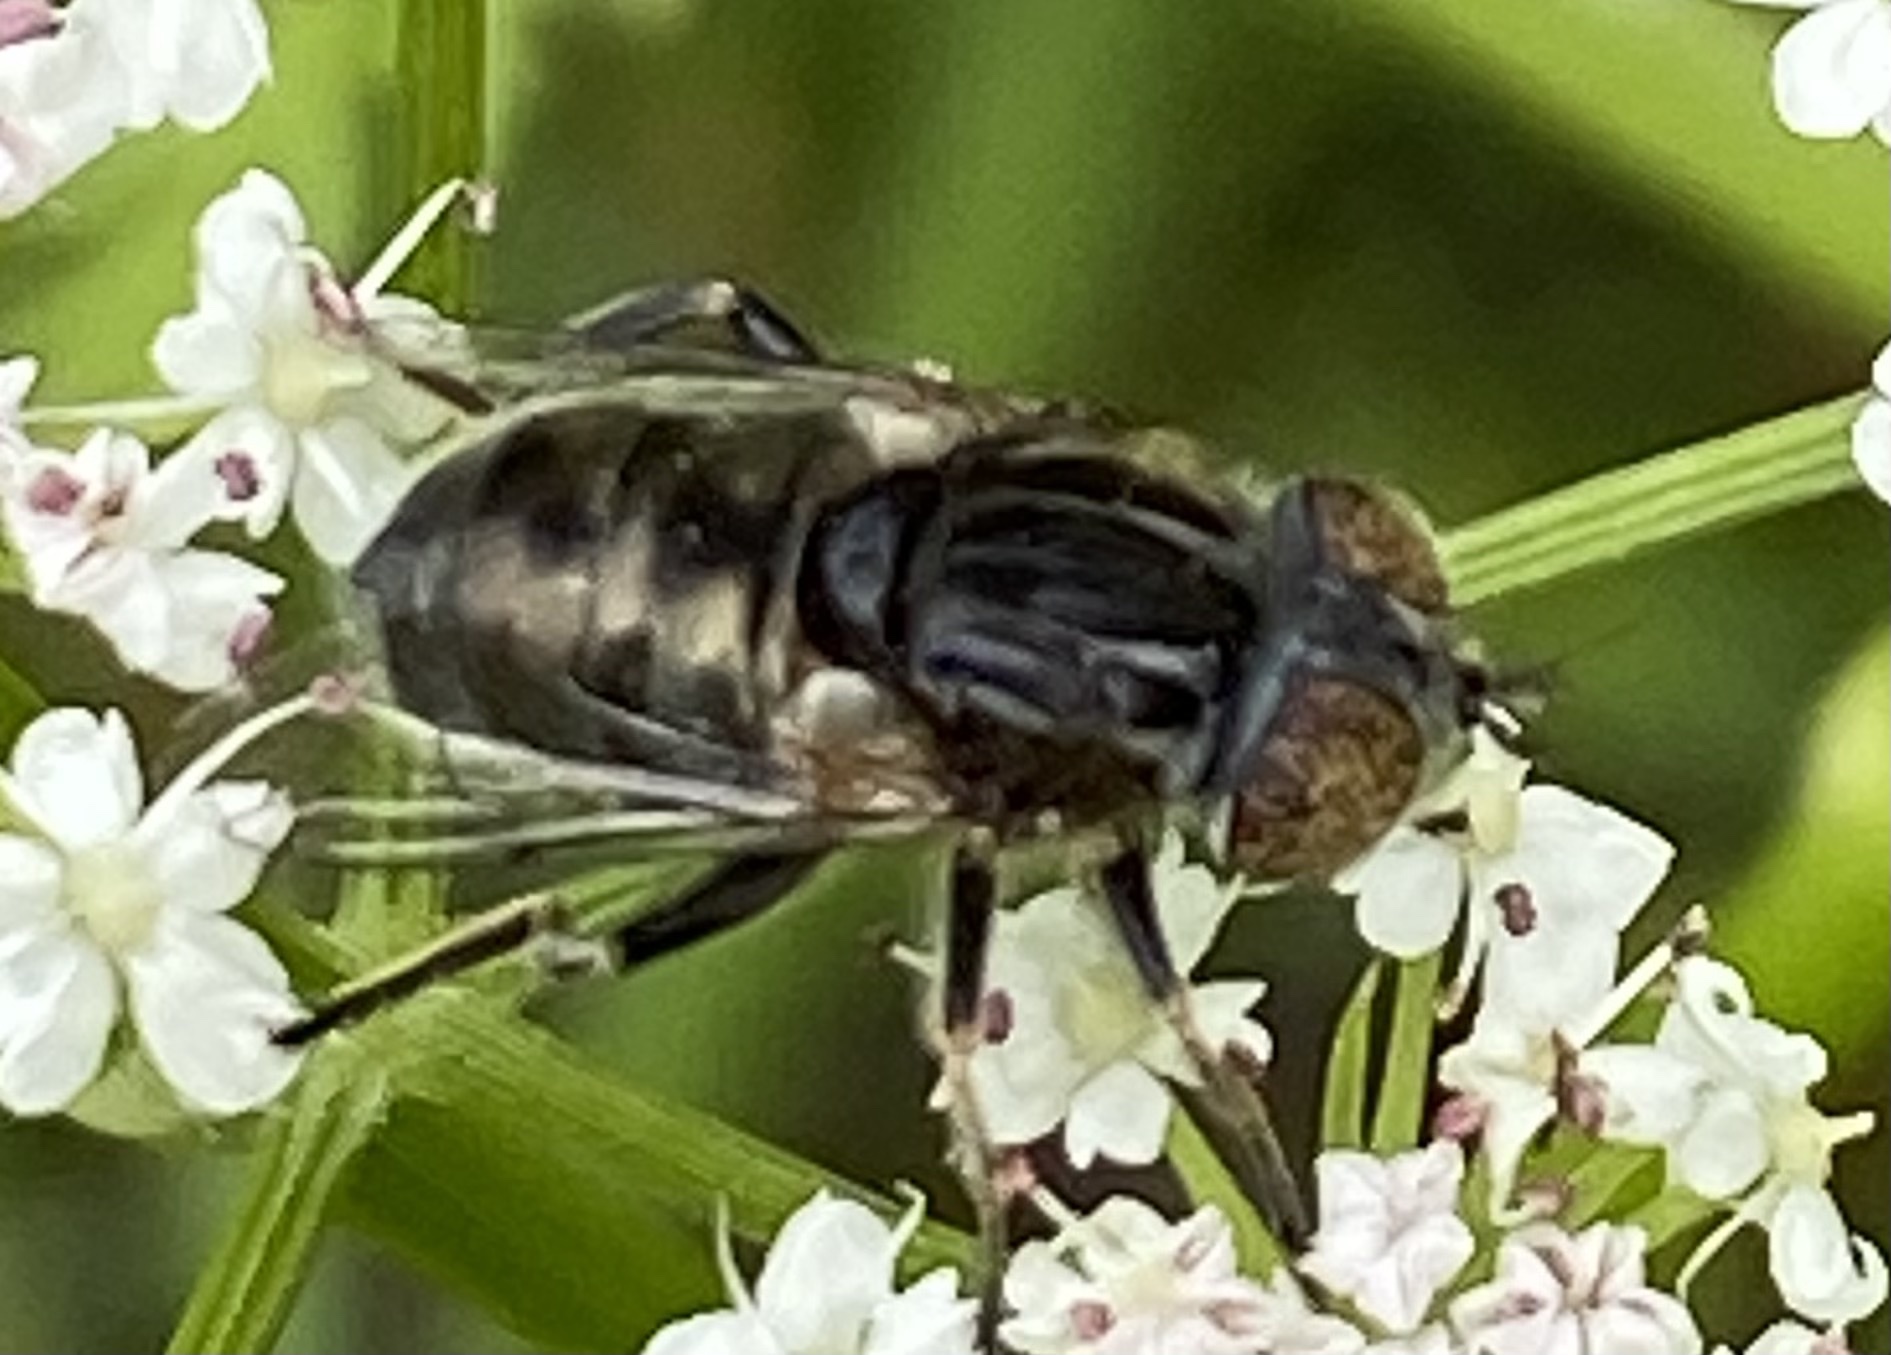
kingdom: Animalia
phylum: Arthropoda
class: Insecta
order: Diptera
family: Syrphidae
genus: Eristalinus
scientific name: Eristalinus sepulchralis
